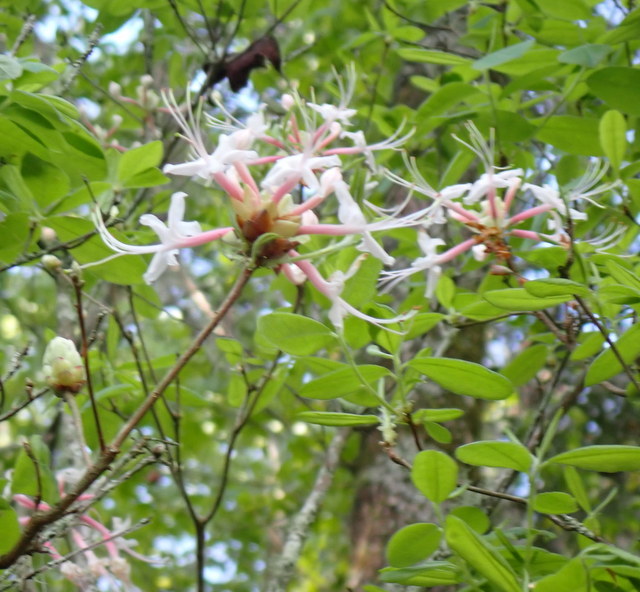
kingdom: Plantae
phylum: Tracheophyta
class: Magnoliopsida
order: Ericales
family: Ericaceae
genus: Rhododendron
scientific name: Rhododendron canescens
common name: Mountain azalea
